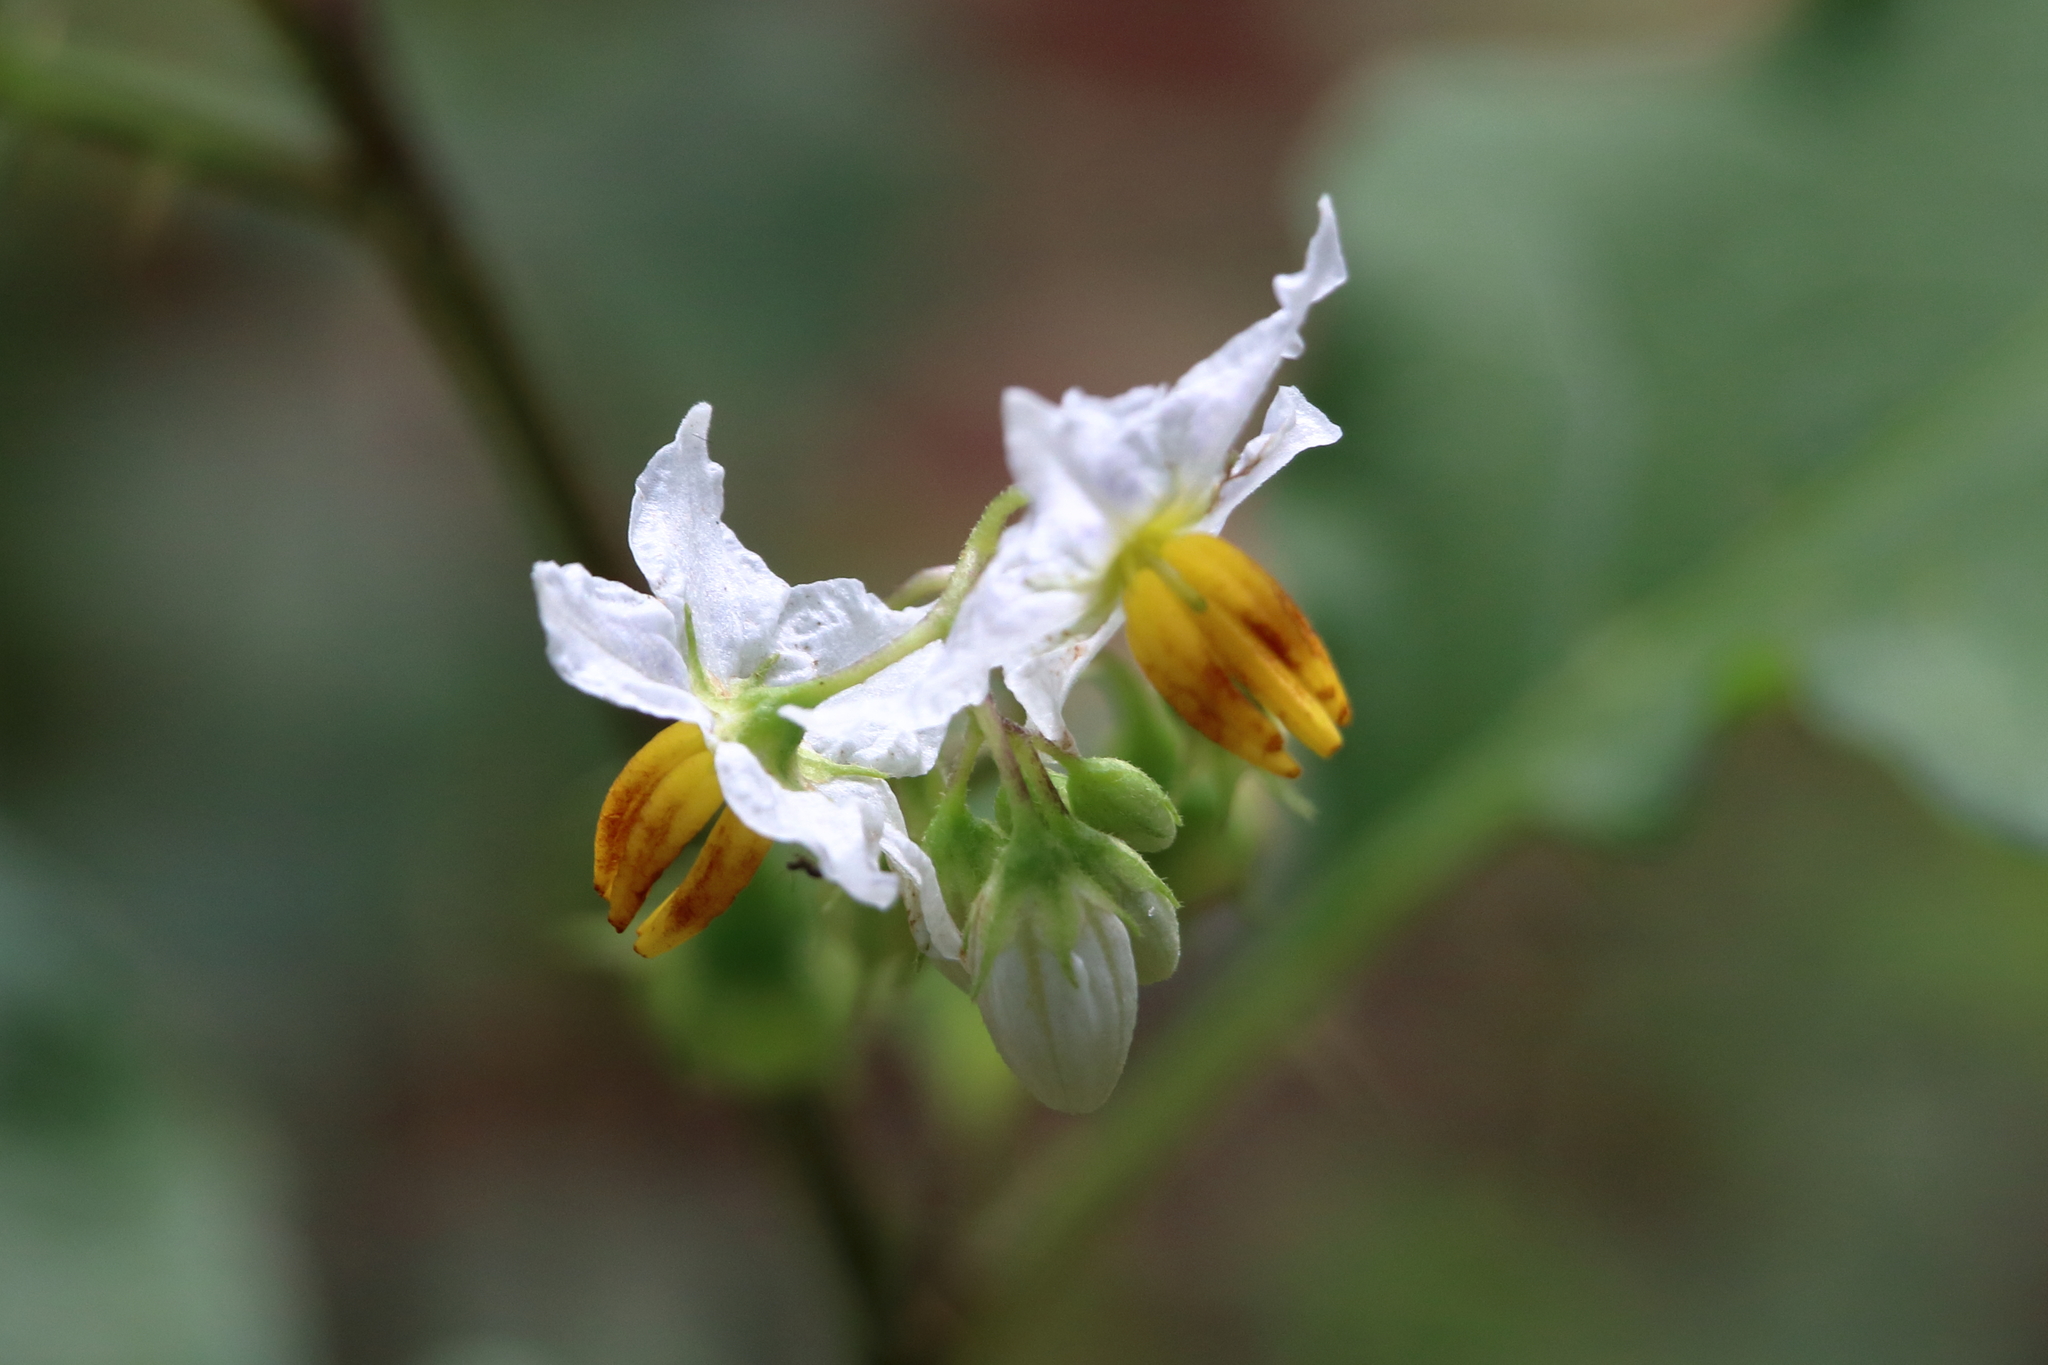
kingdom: Plantae
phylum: Tracheophyta
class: Magnoliopsida
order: Solanales
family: Solanaceae
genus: Solanum
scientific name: Solanum carolinense
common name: Horse-nettle
